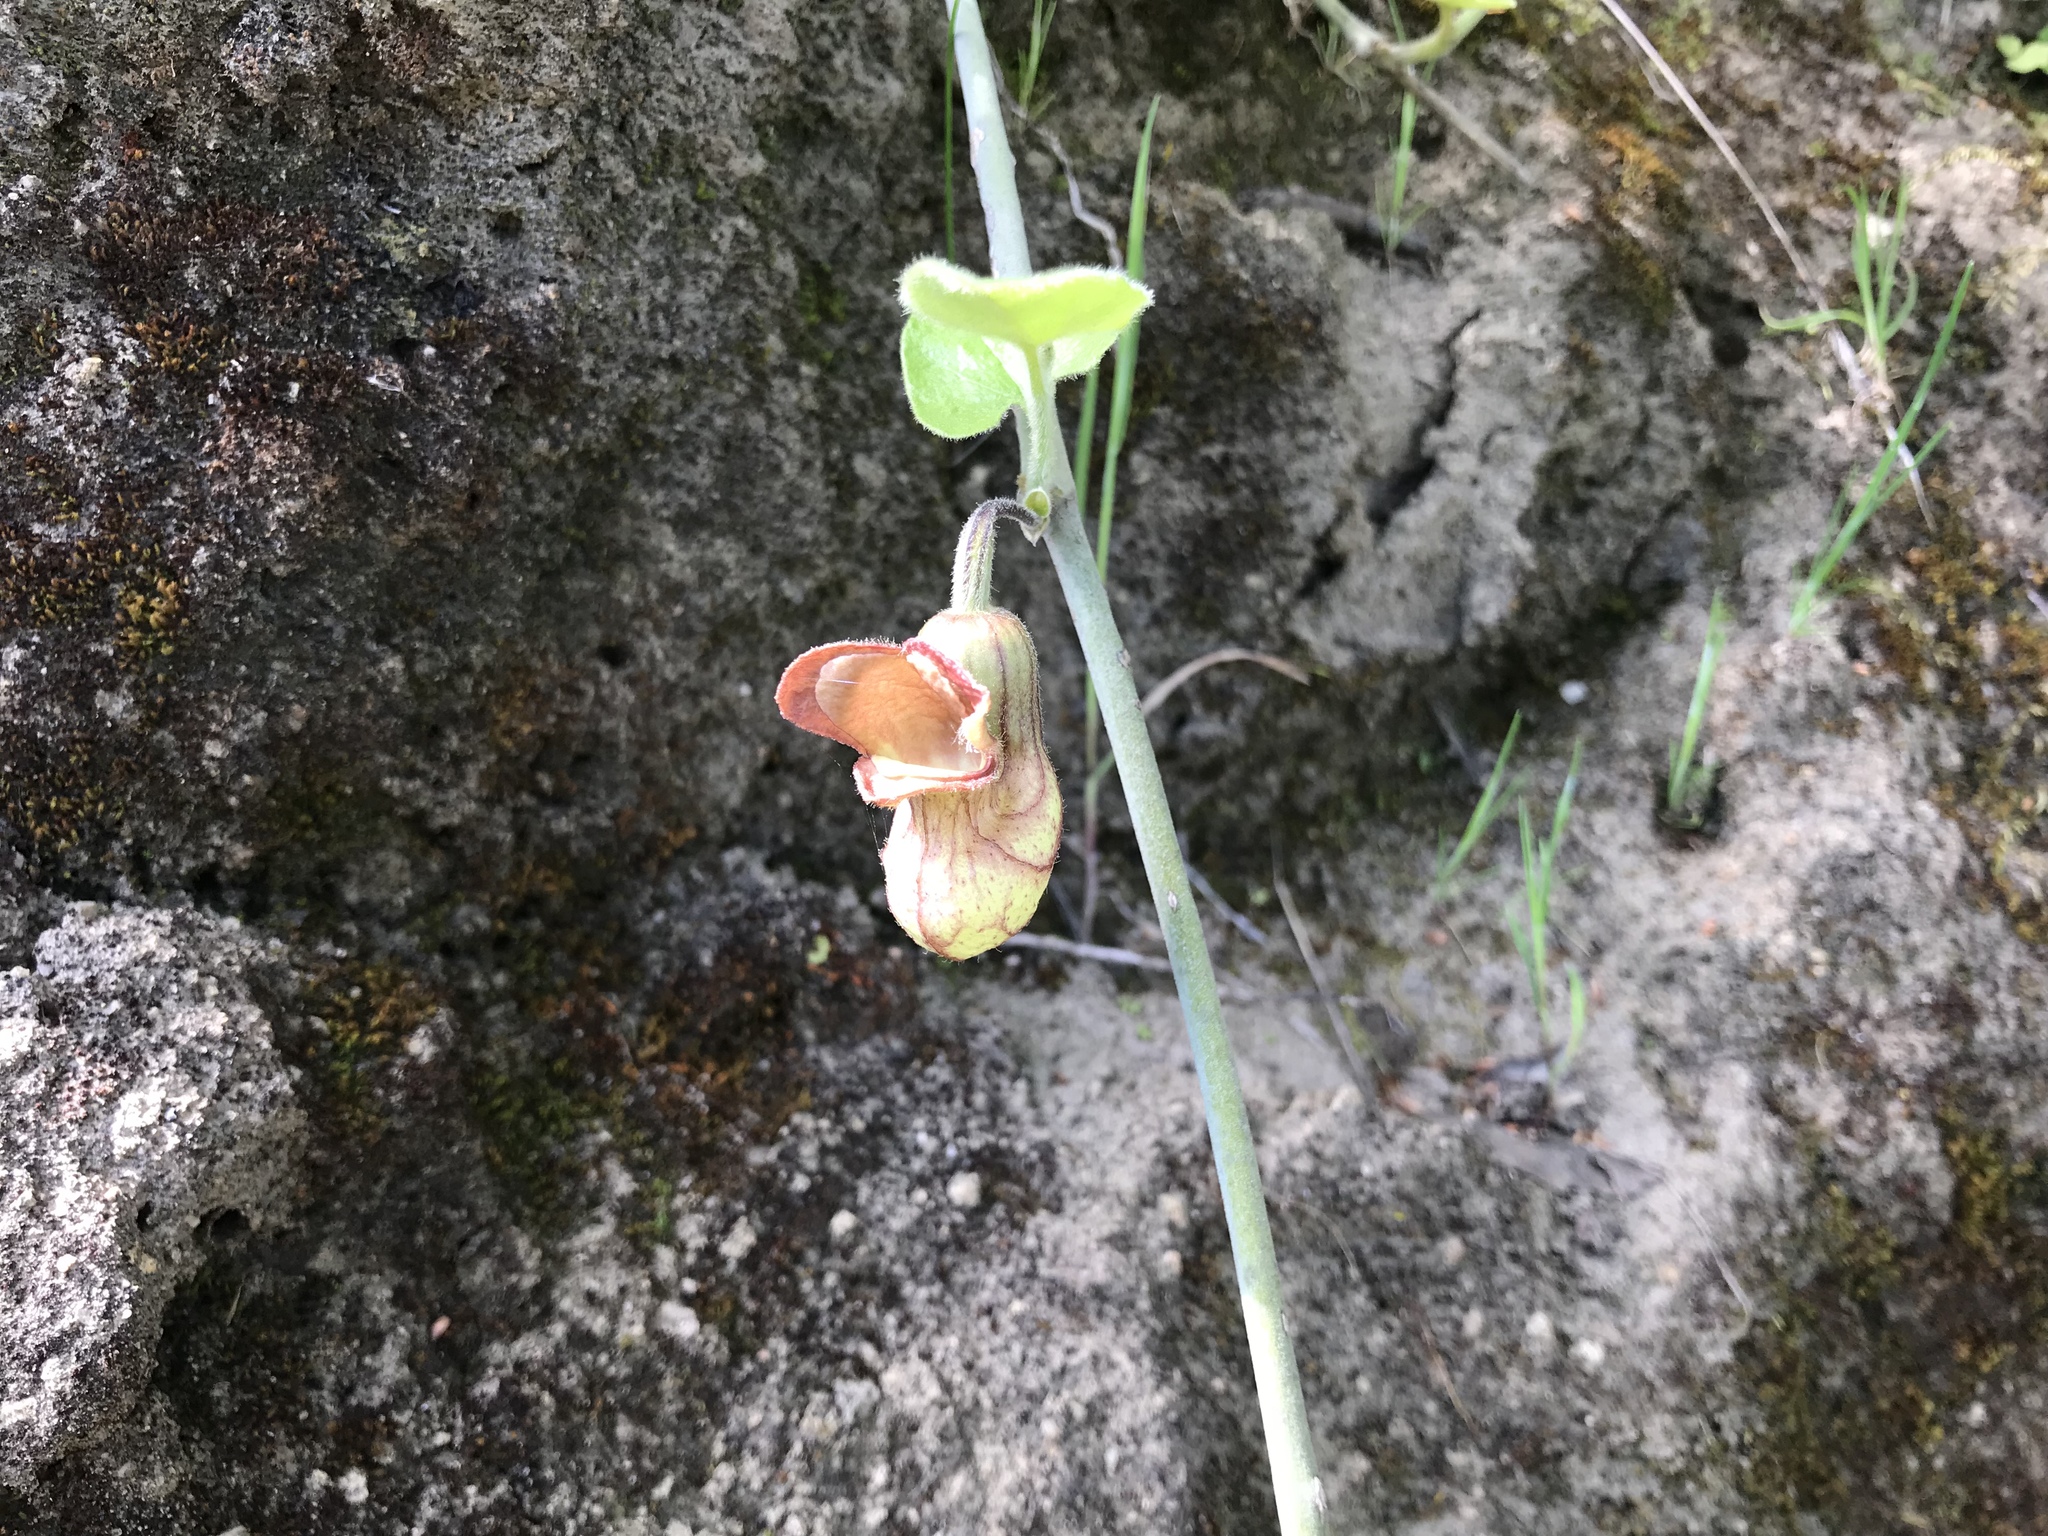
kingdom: Plantae
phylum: Tracheophyta
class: Magnoliopsida
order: Piperales
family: Aristolochiaceae
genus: Isotrema
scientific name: Isotrema californicum
